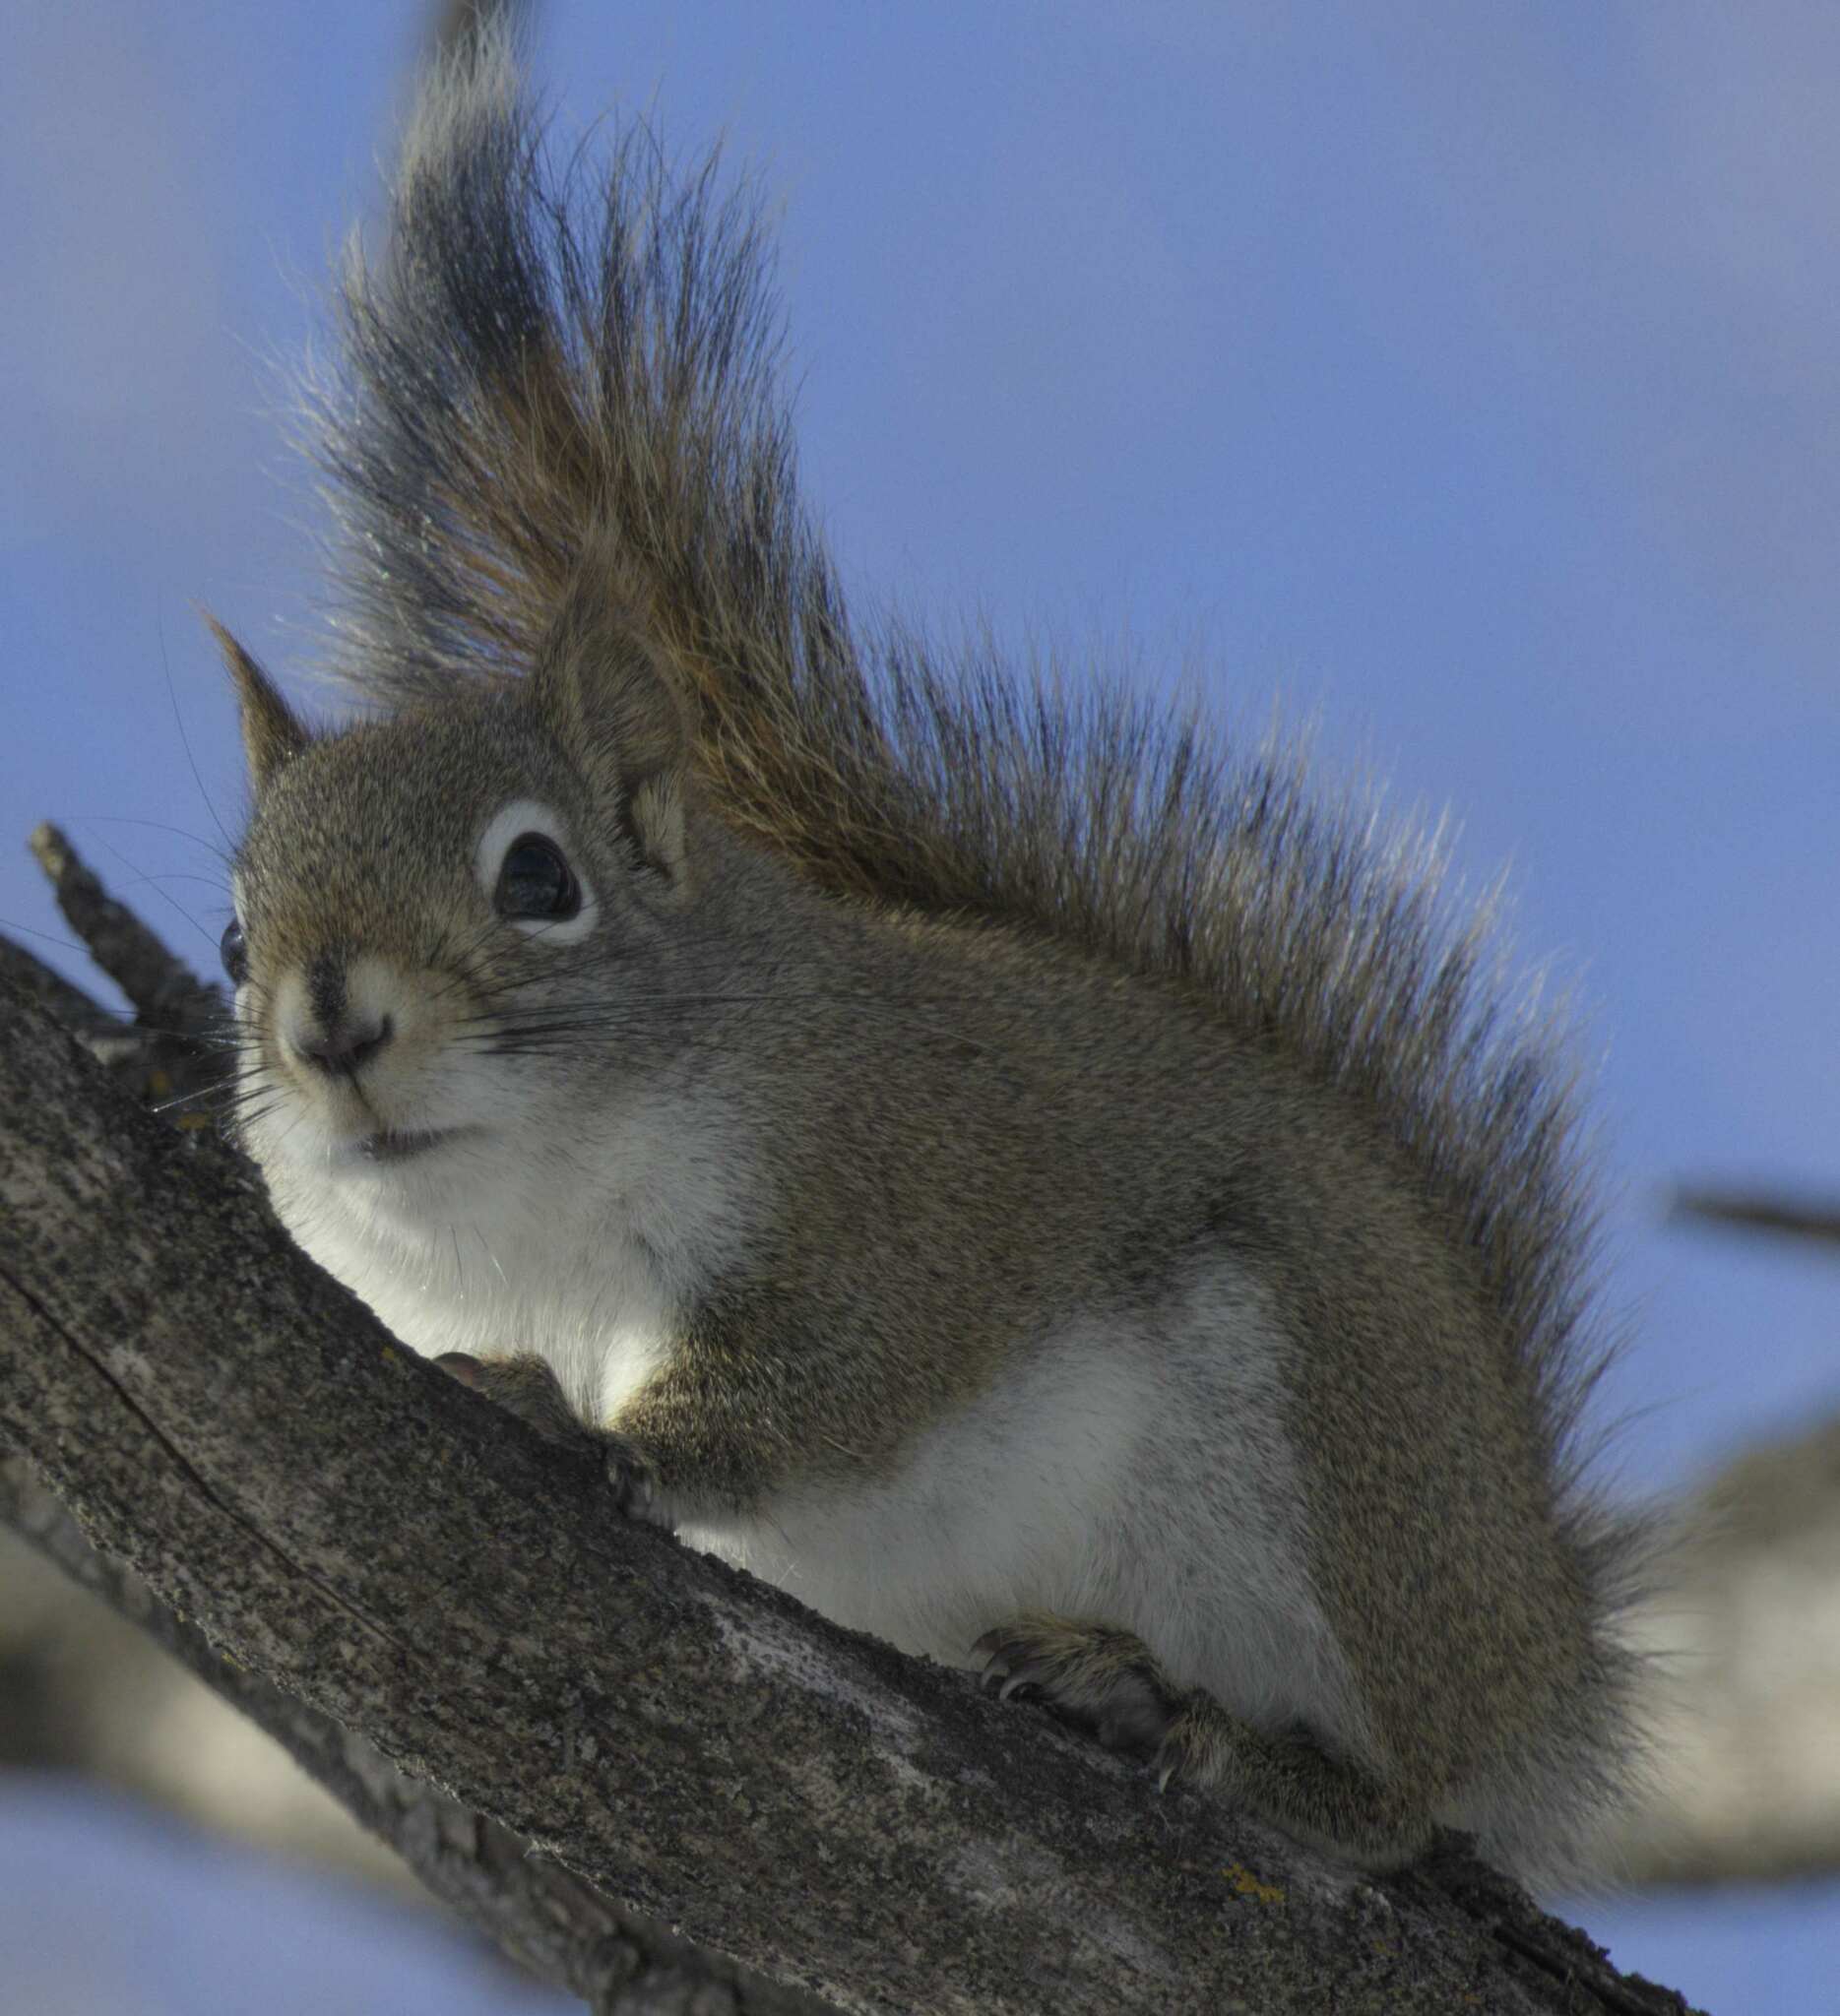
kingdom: Animalia
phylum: Chordata
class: Mammalia
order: Rodentia
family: Sciuridae
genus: Tamiasciurus
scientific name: Tamiasciurus hudsonicus
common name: Red squirrel
